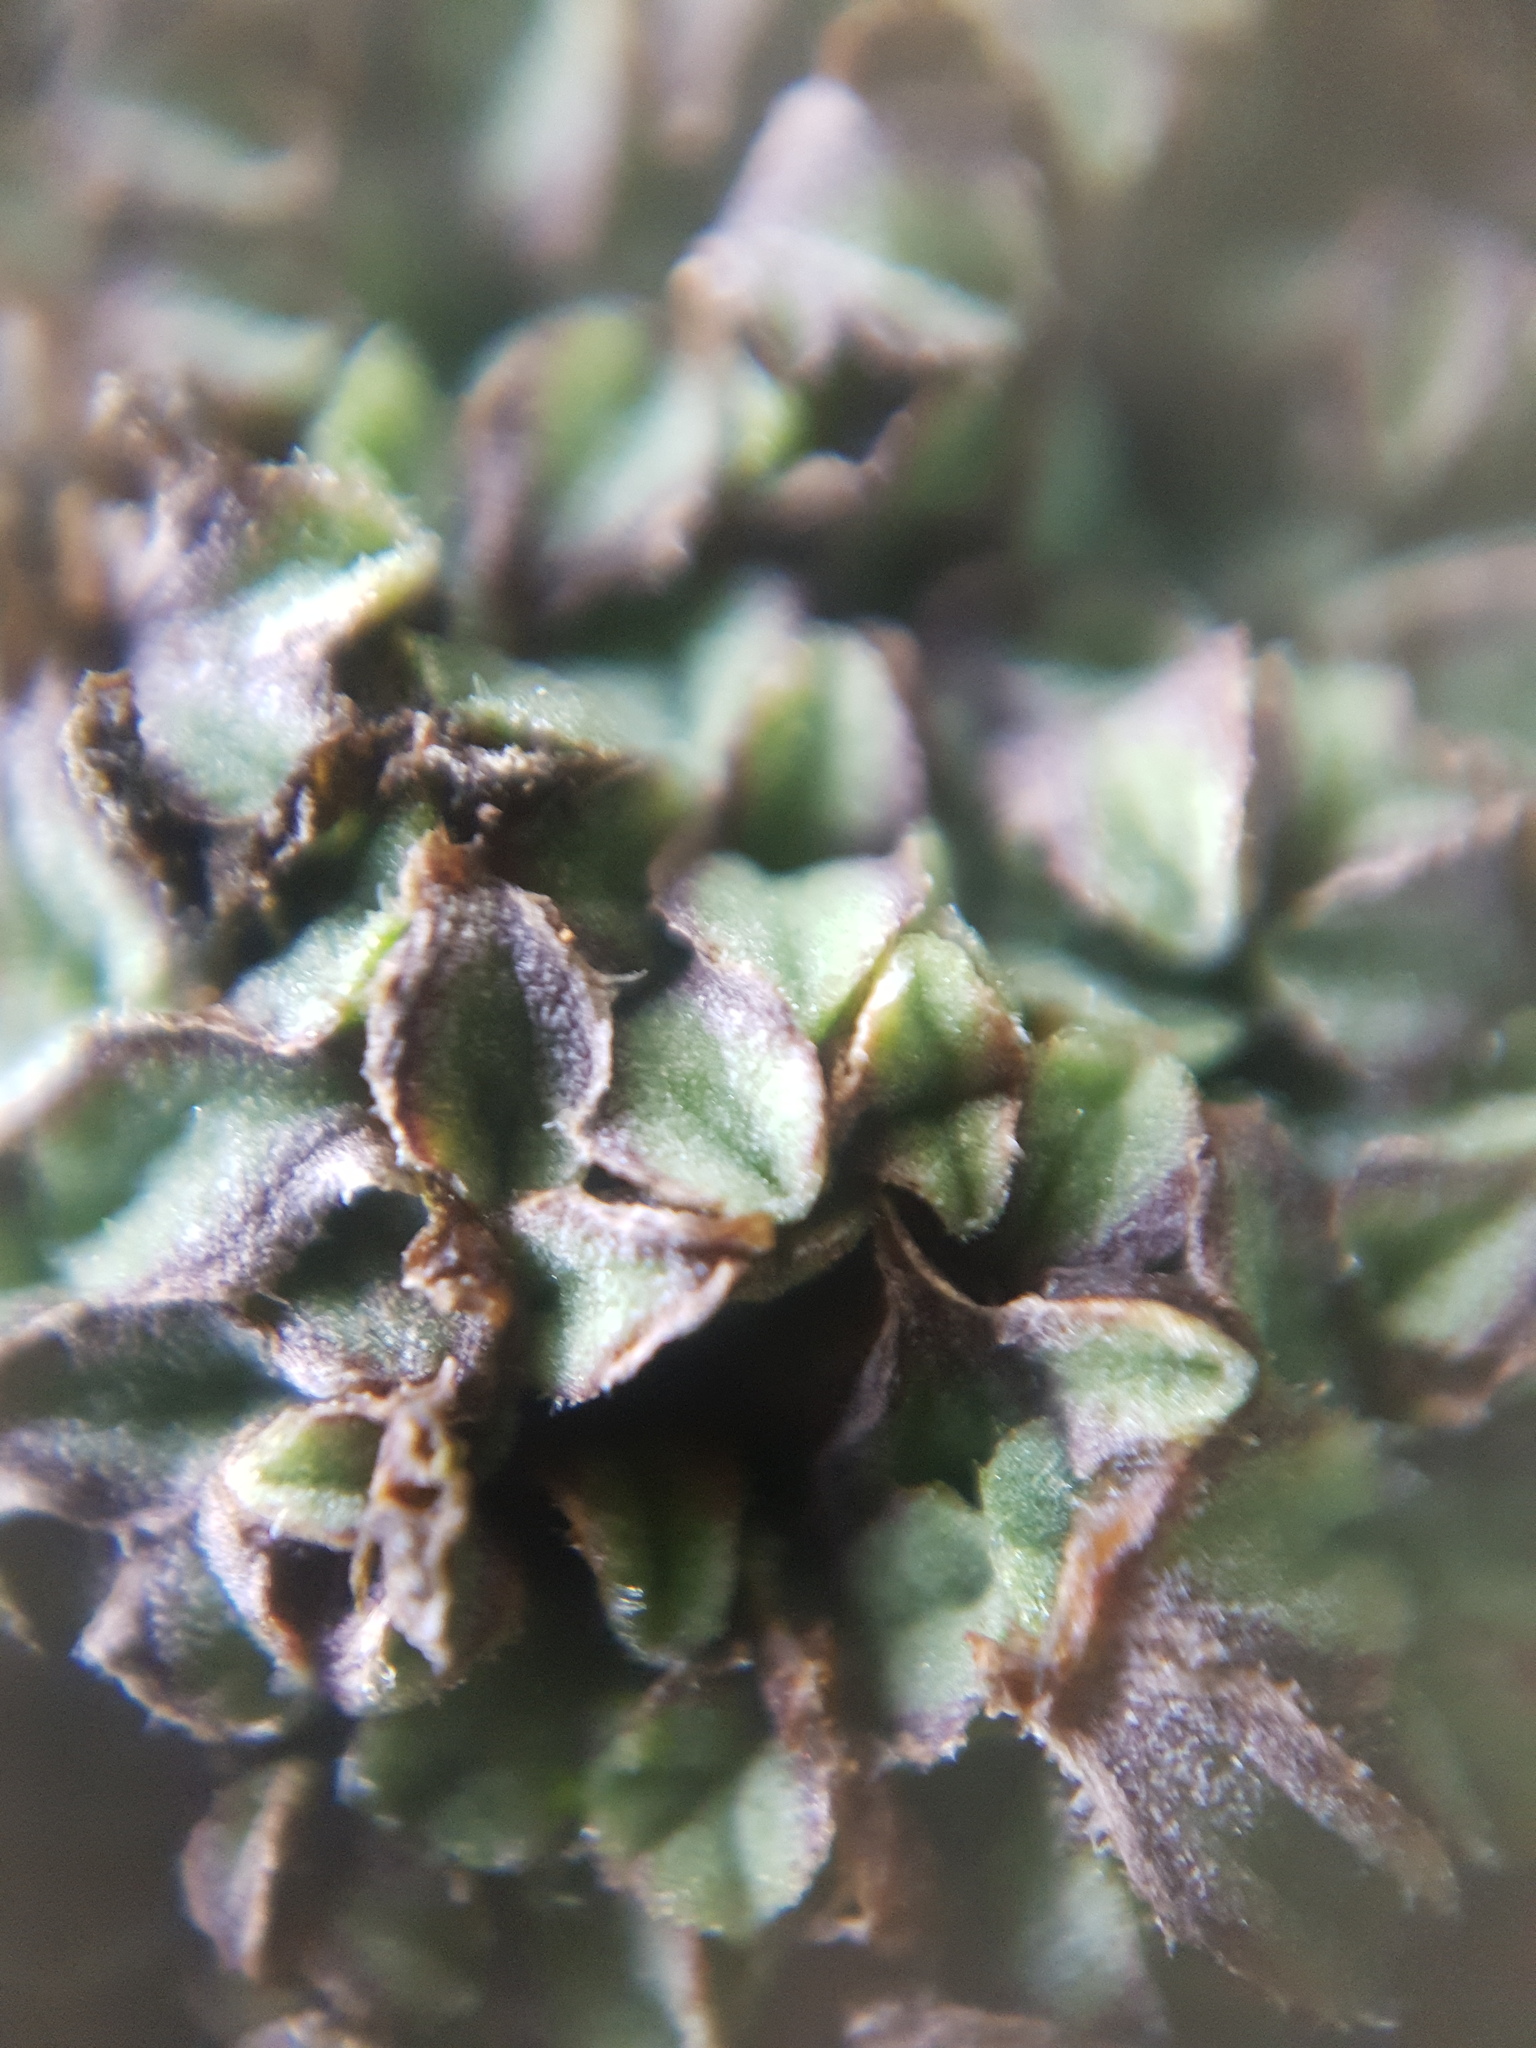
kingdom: Plantae
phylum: Marchantiophyta
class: Marchantiopsida
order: Marchantiales
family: Ricciaceae
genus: Riccia
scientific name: Riccia ciliifera
